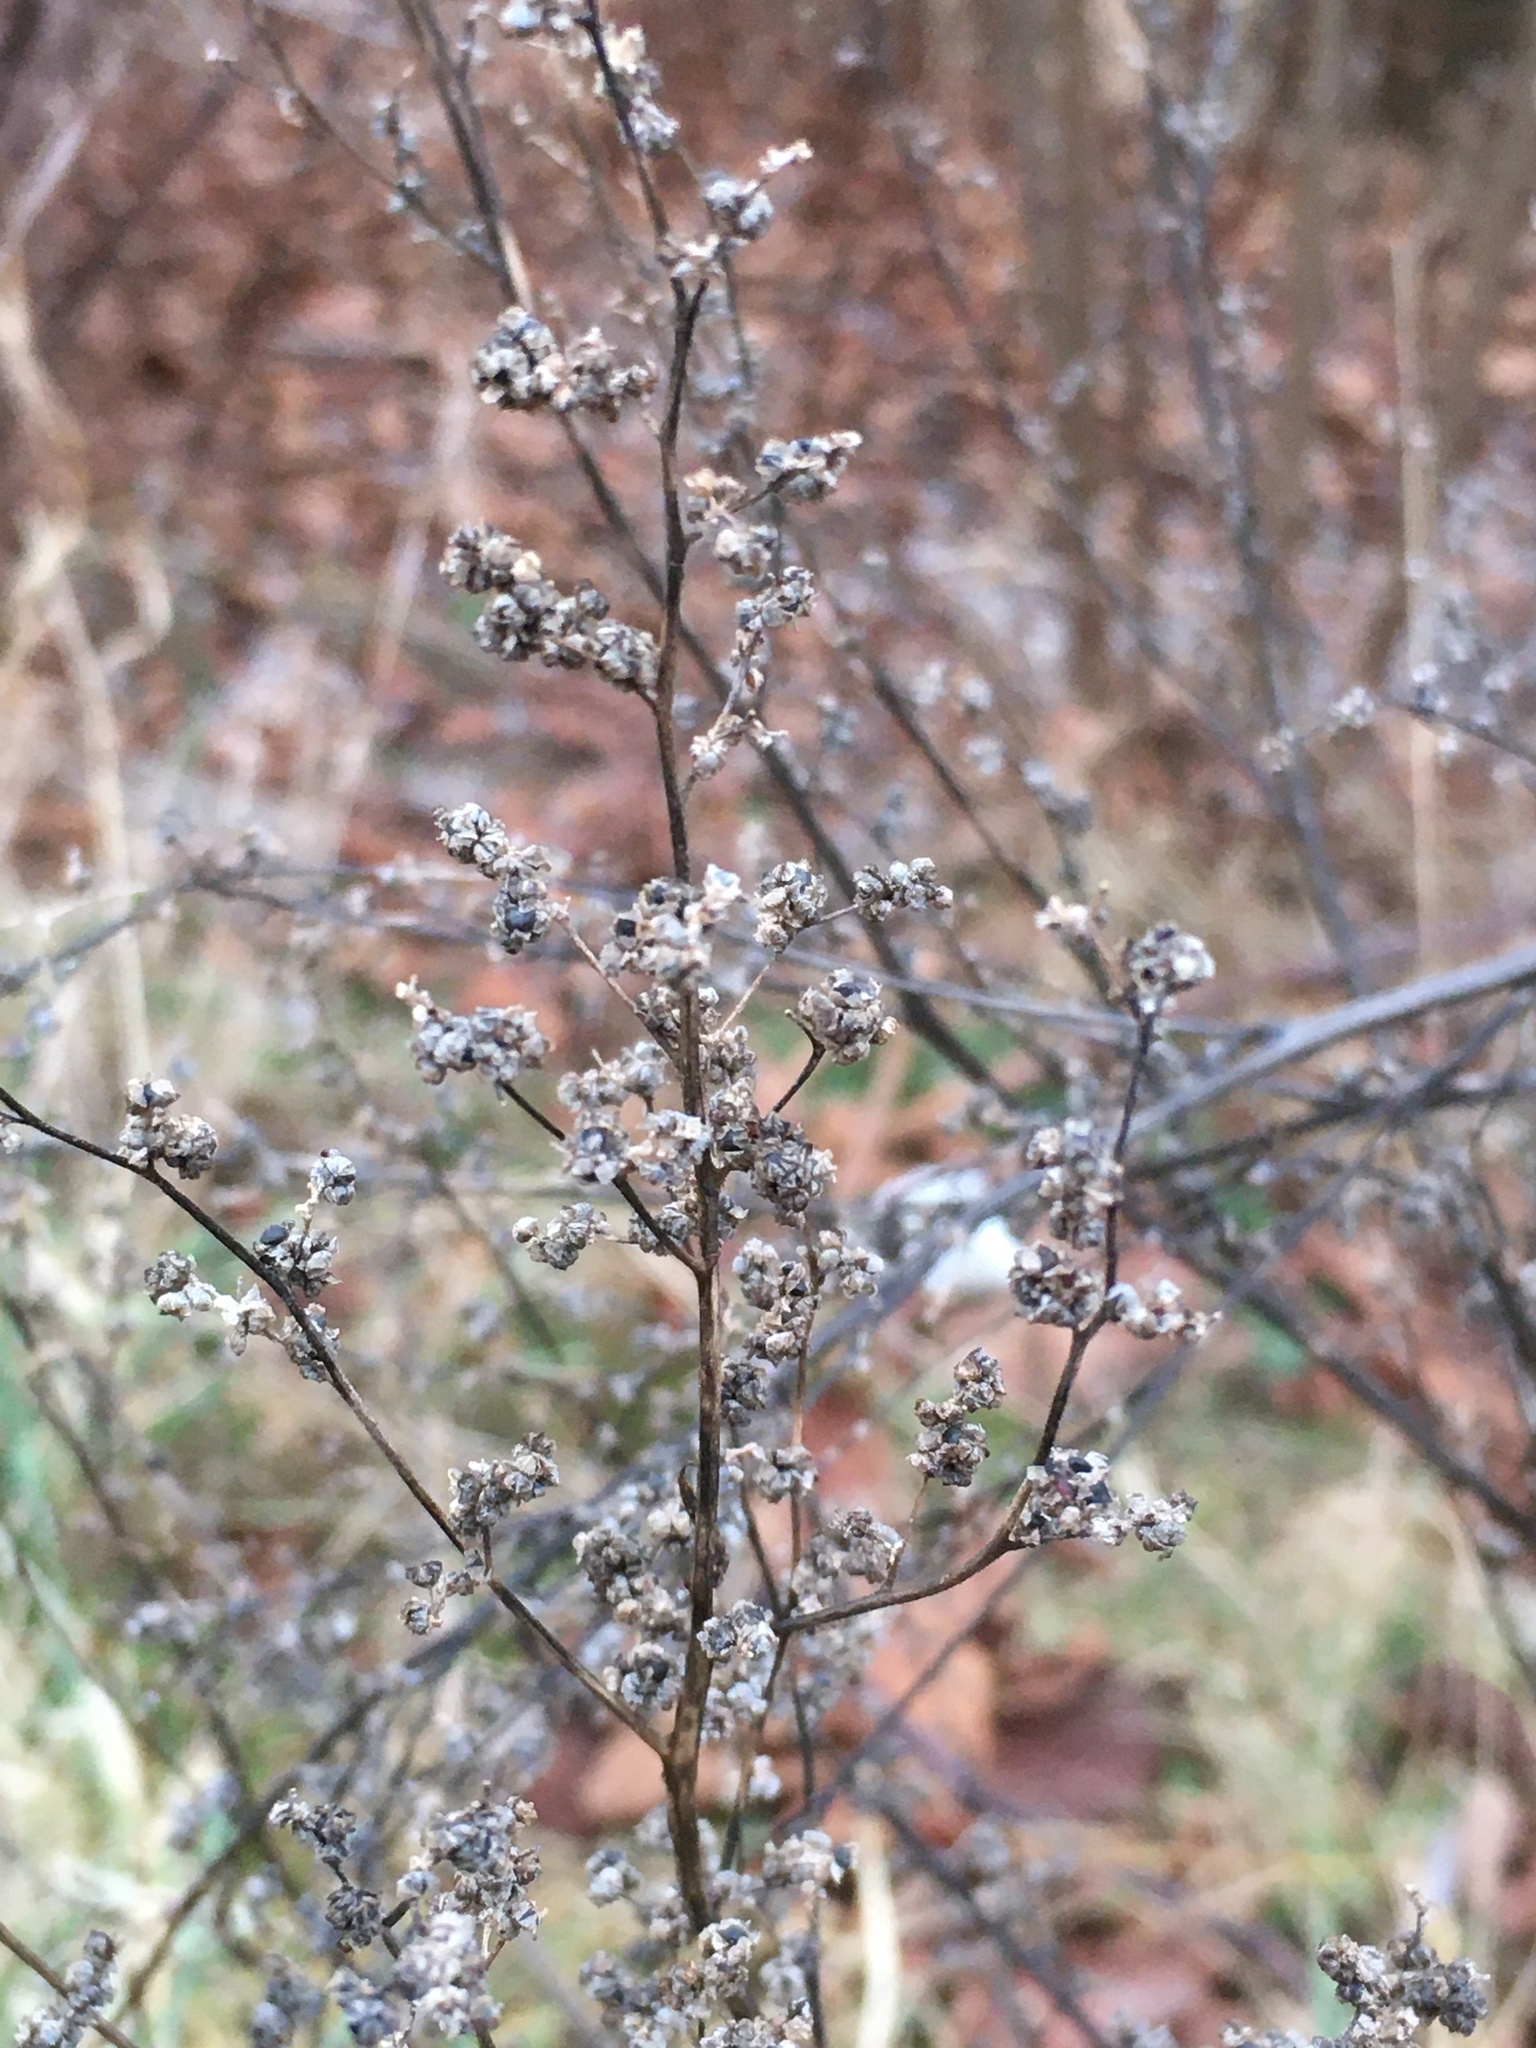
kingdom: Plantae
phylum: Tracheophyta
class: Magnoliopsida
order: Asterales
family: Asteraceae
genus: Artemisia
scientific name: Artemisia vulgaris
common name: Mugwort
